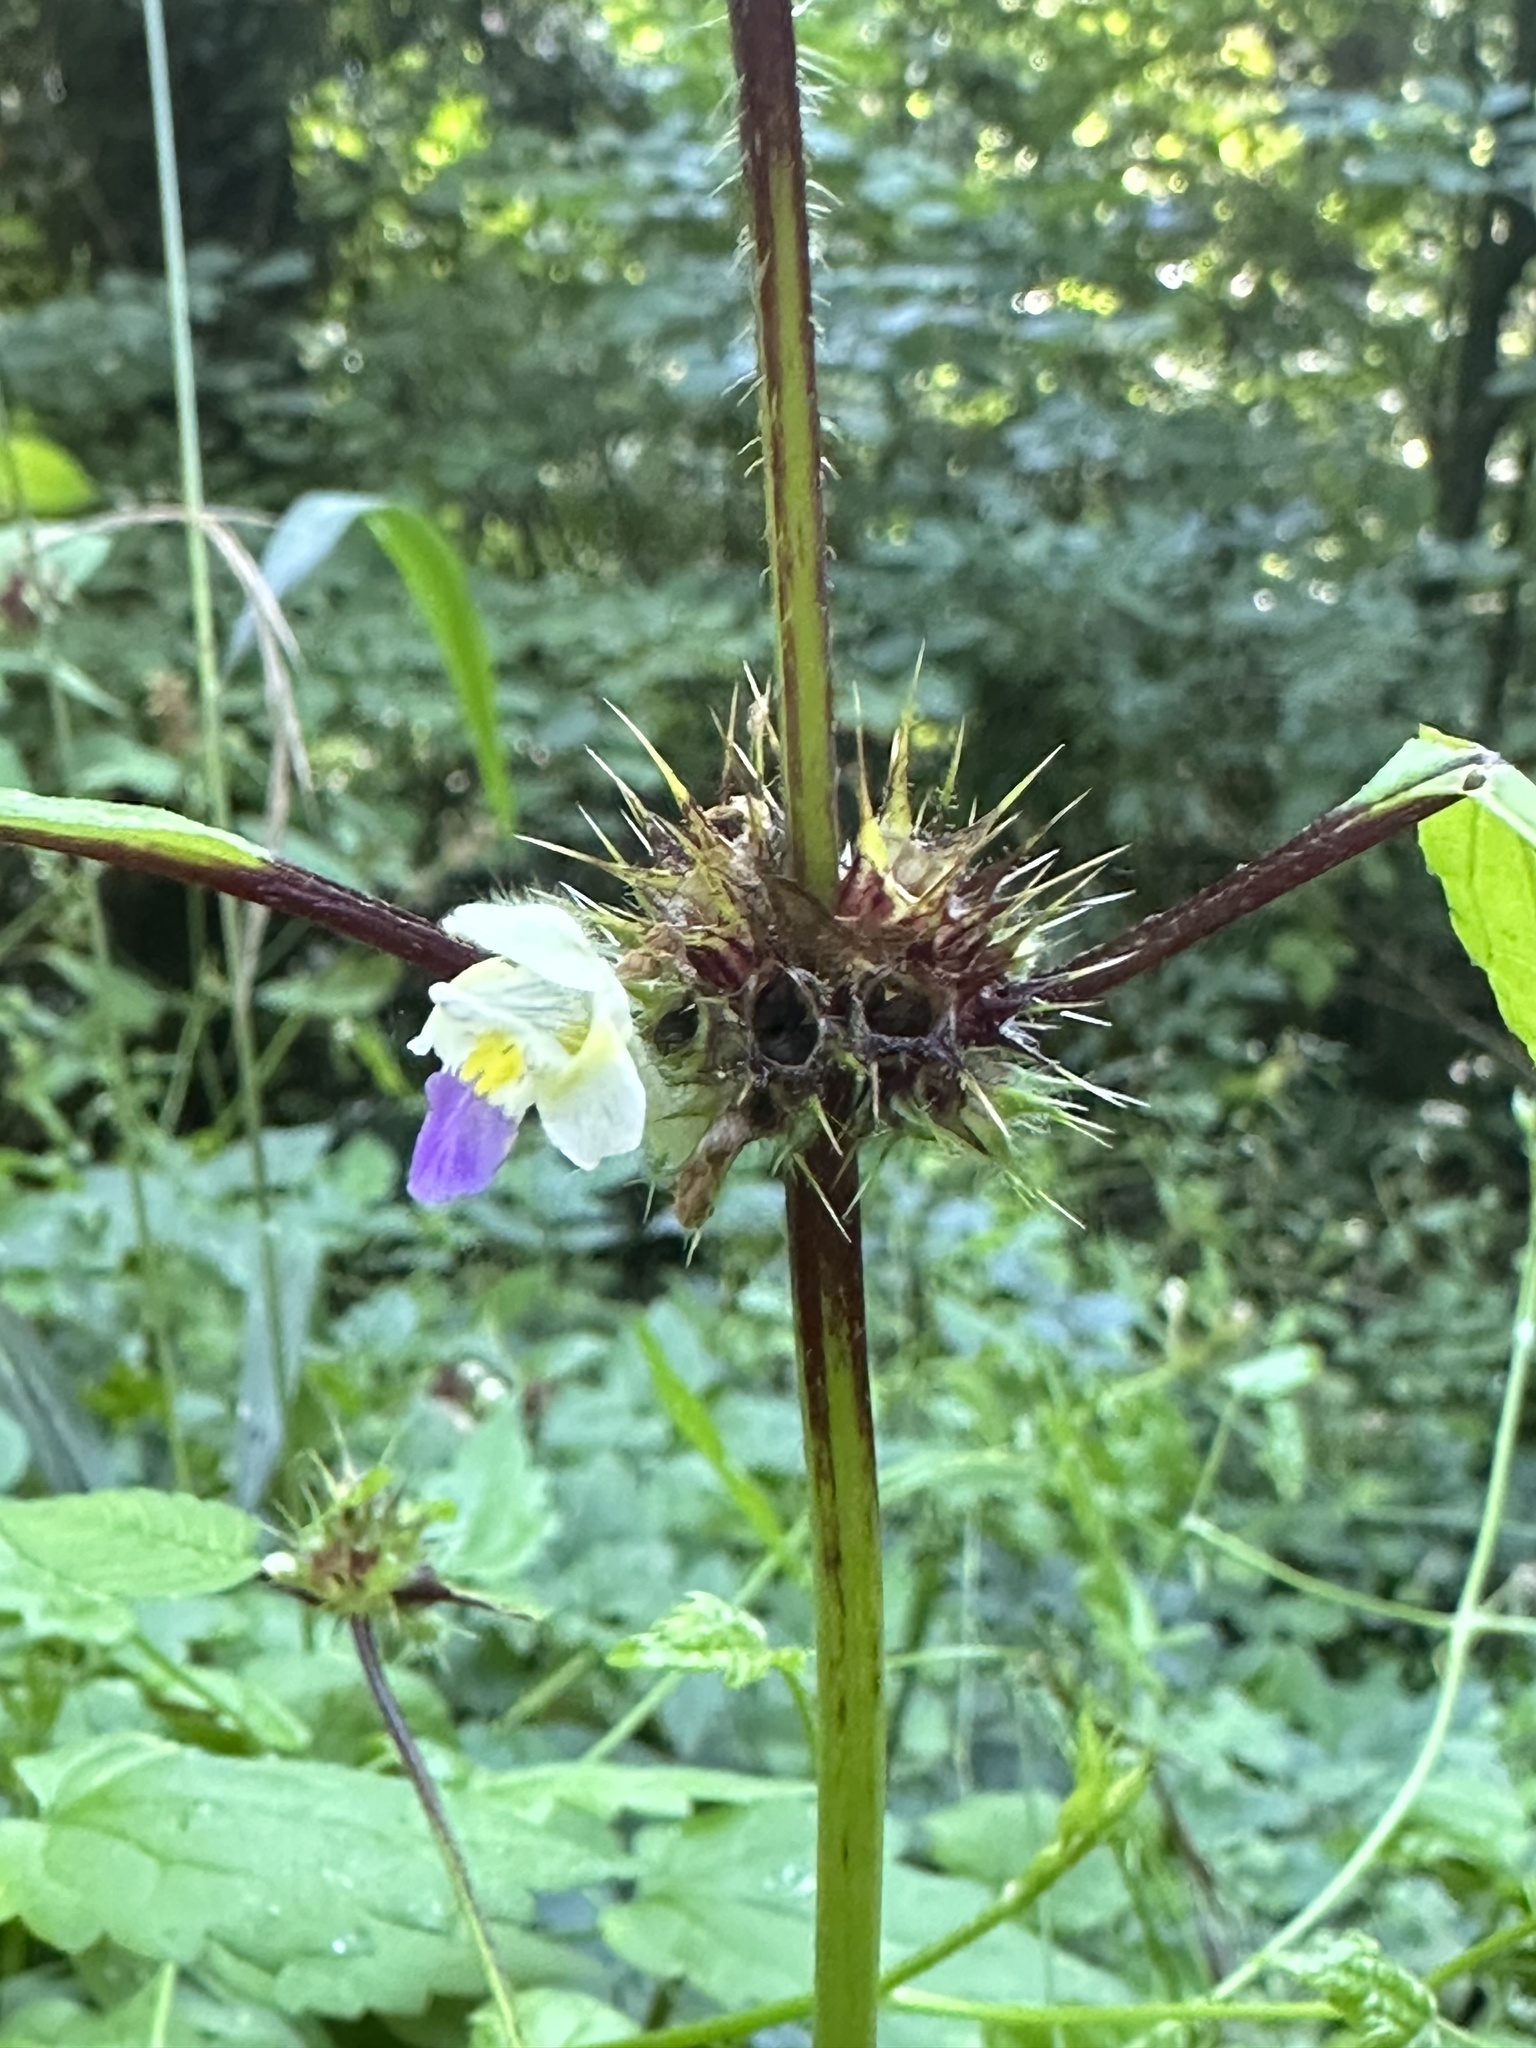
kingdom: Plantae
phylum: Tracheophyta
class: Magnoliopsida
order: Lamiales
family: Lamiaceae
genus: Galeopsis
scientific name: Galeopsis speciosa
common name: Large-flowered hemp-nettle
